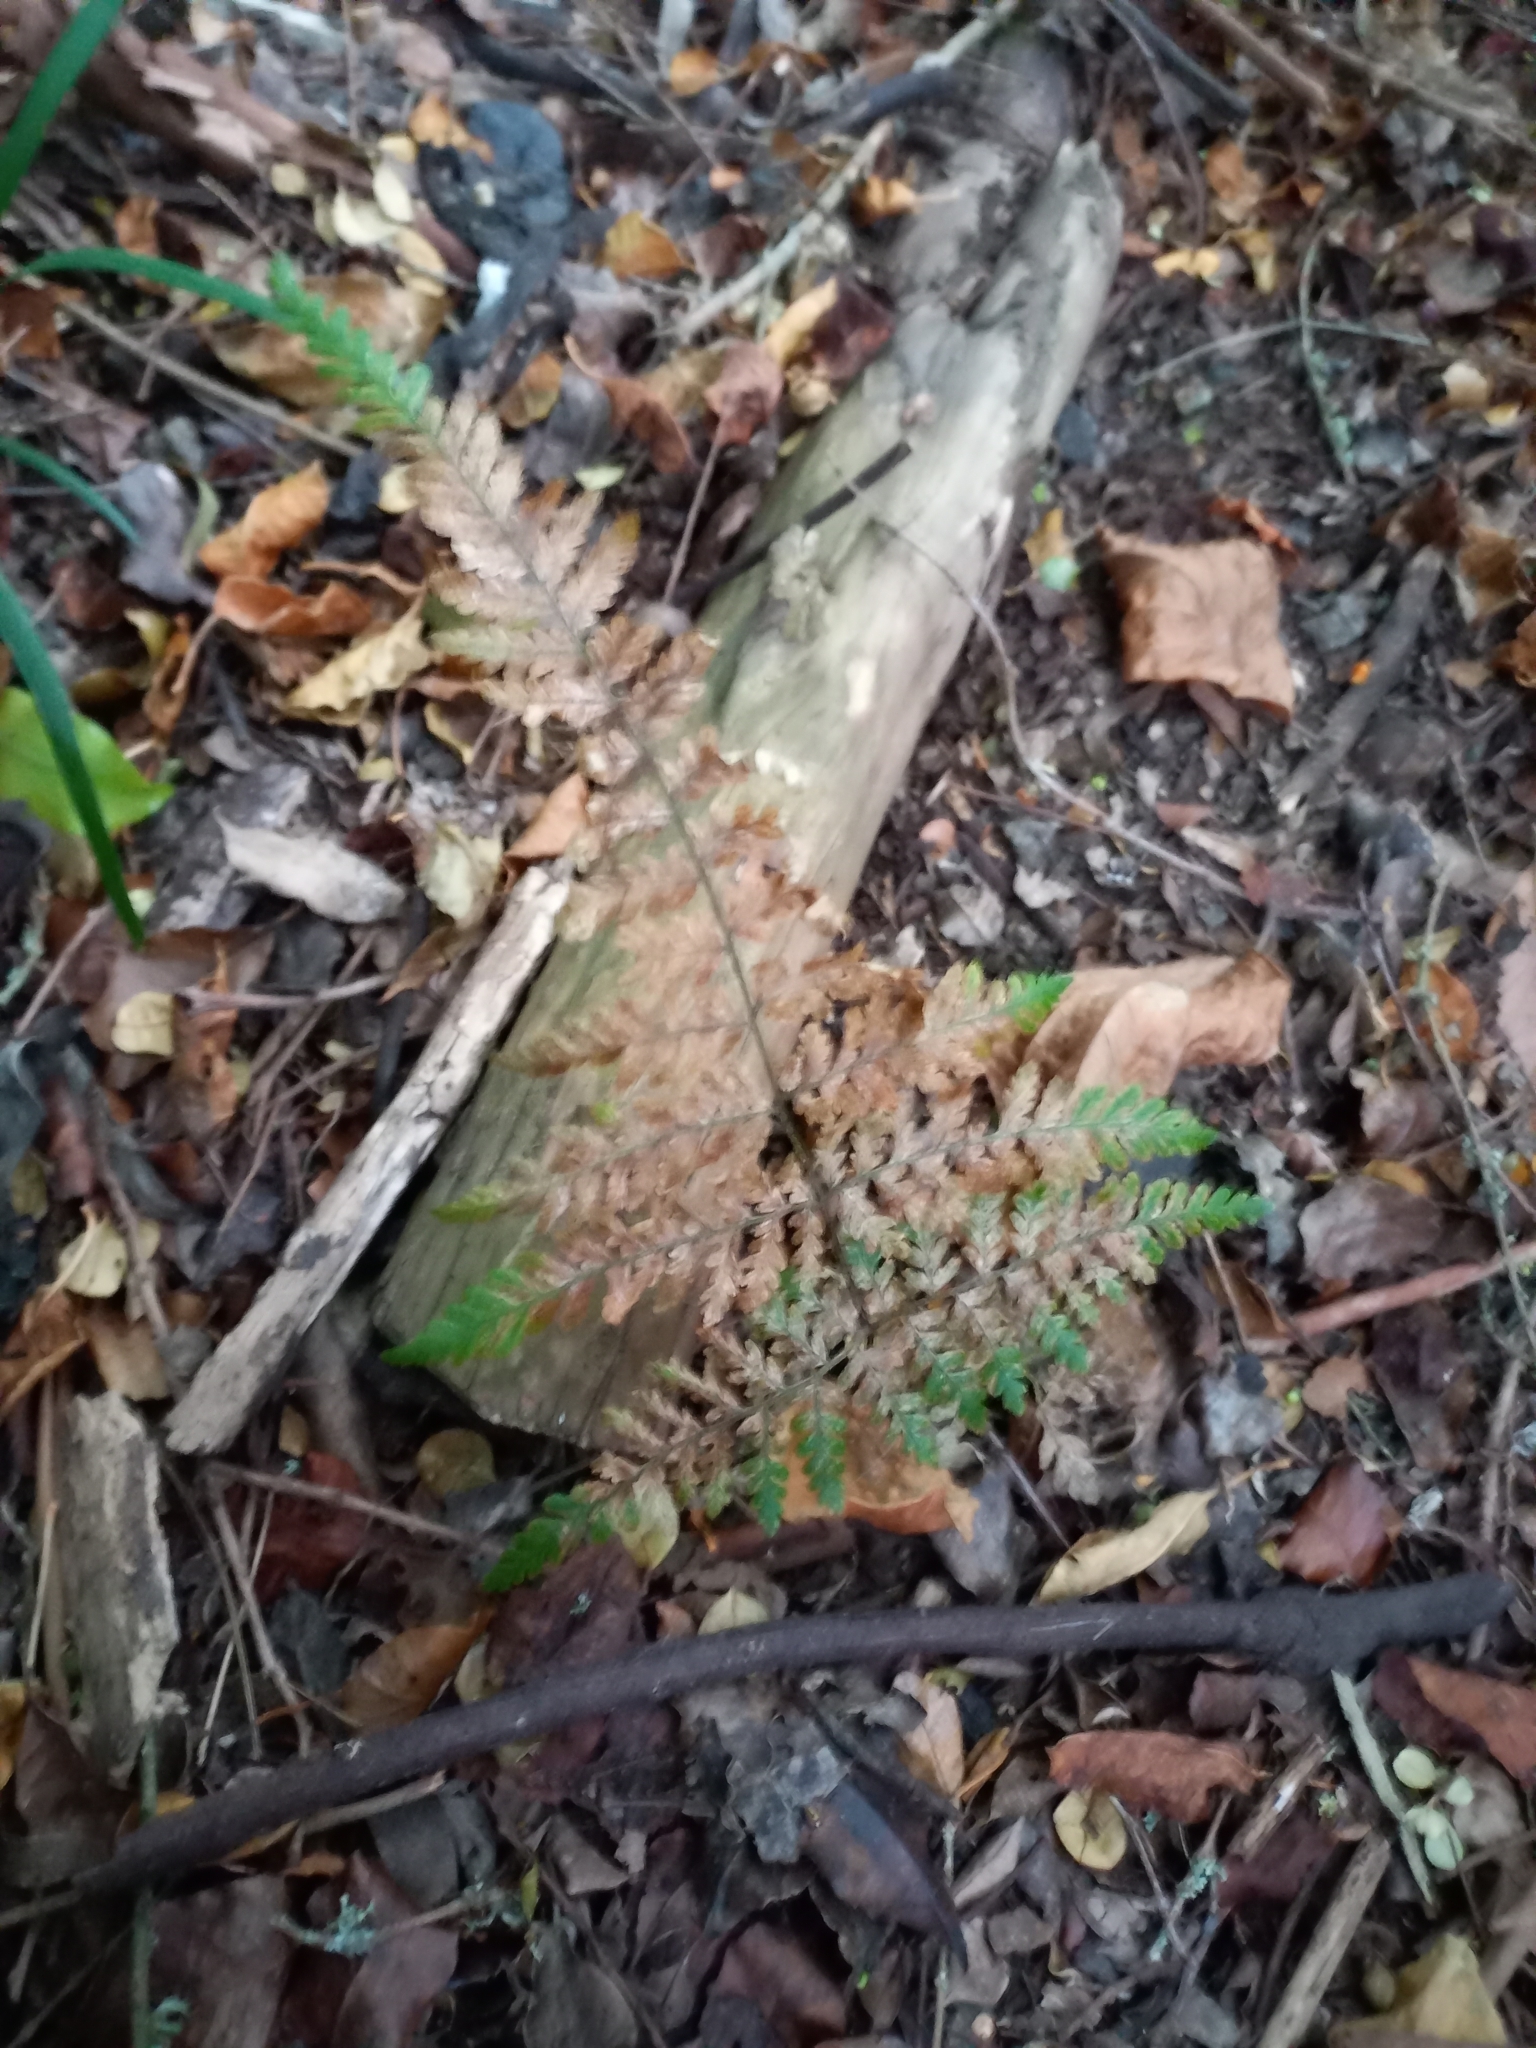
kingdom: Plantae
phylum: Tracheophyta
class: Polypodiopsida
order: Polypodiales
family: Dennstaedtiaceae
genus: Hypolepis
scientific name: Hypolepis ambigua
